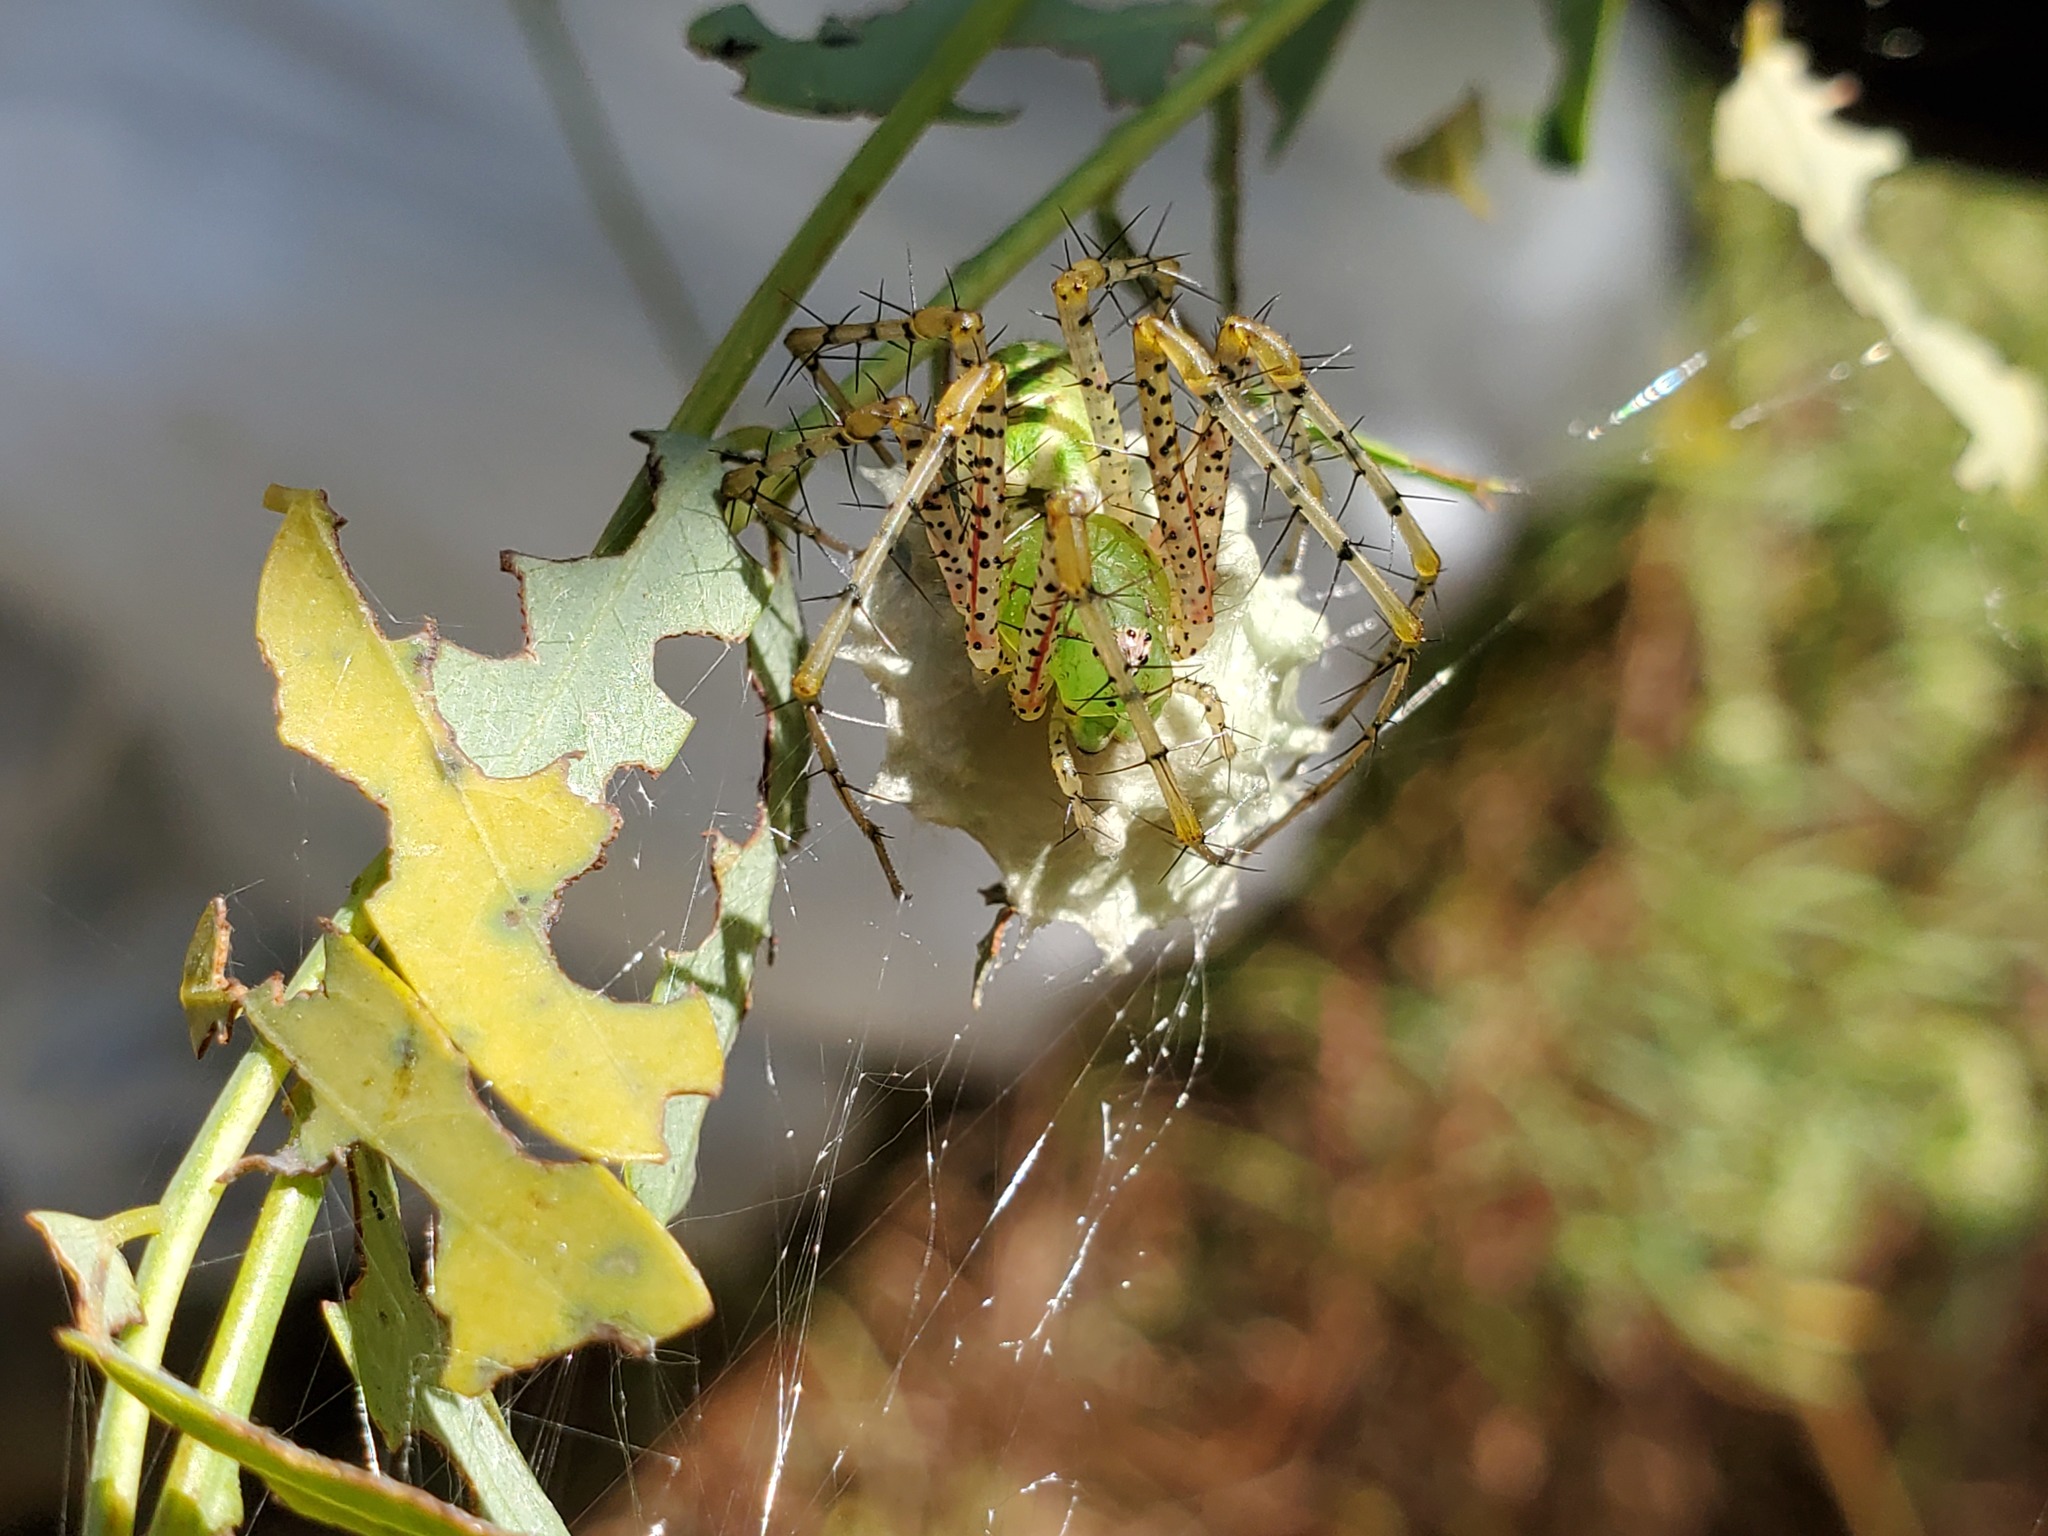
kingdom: Animalia
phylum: Arthropoda
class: Arachnida
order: Araneae
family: Oxyopidae
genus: Peucetia
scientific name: Peucetia viridans
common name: Lynx spiders
